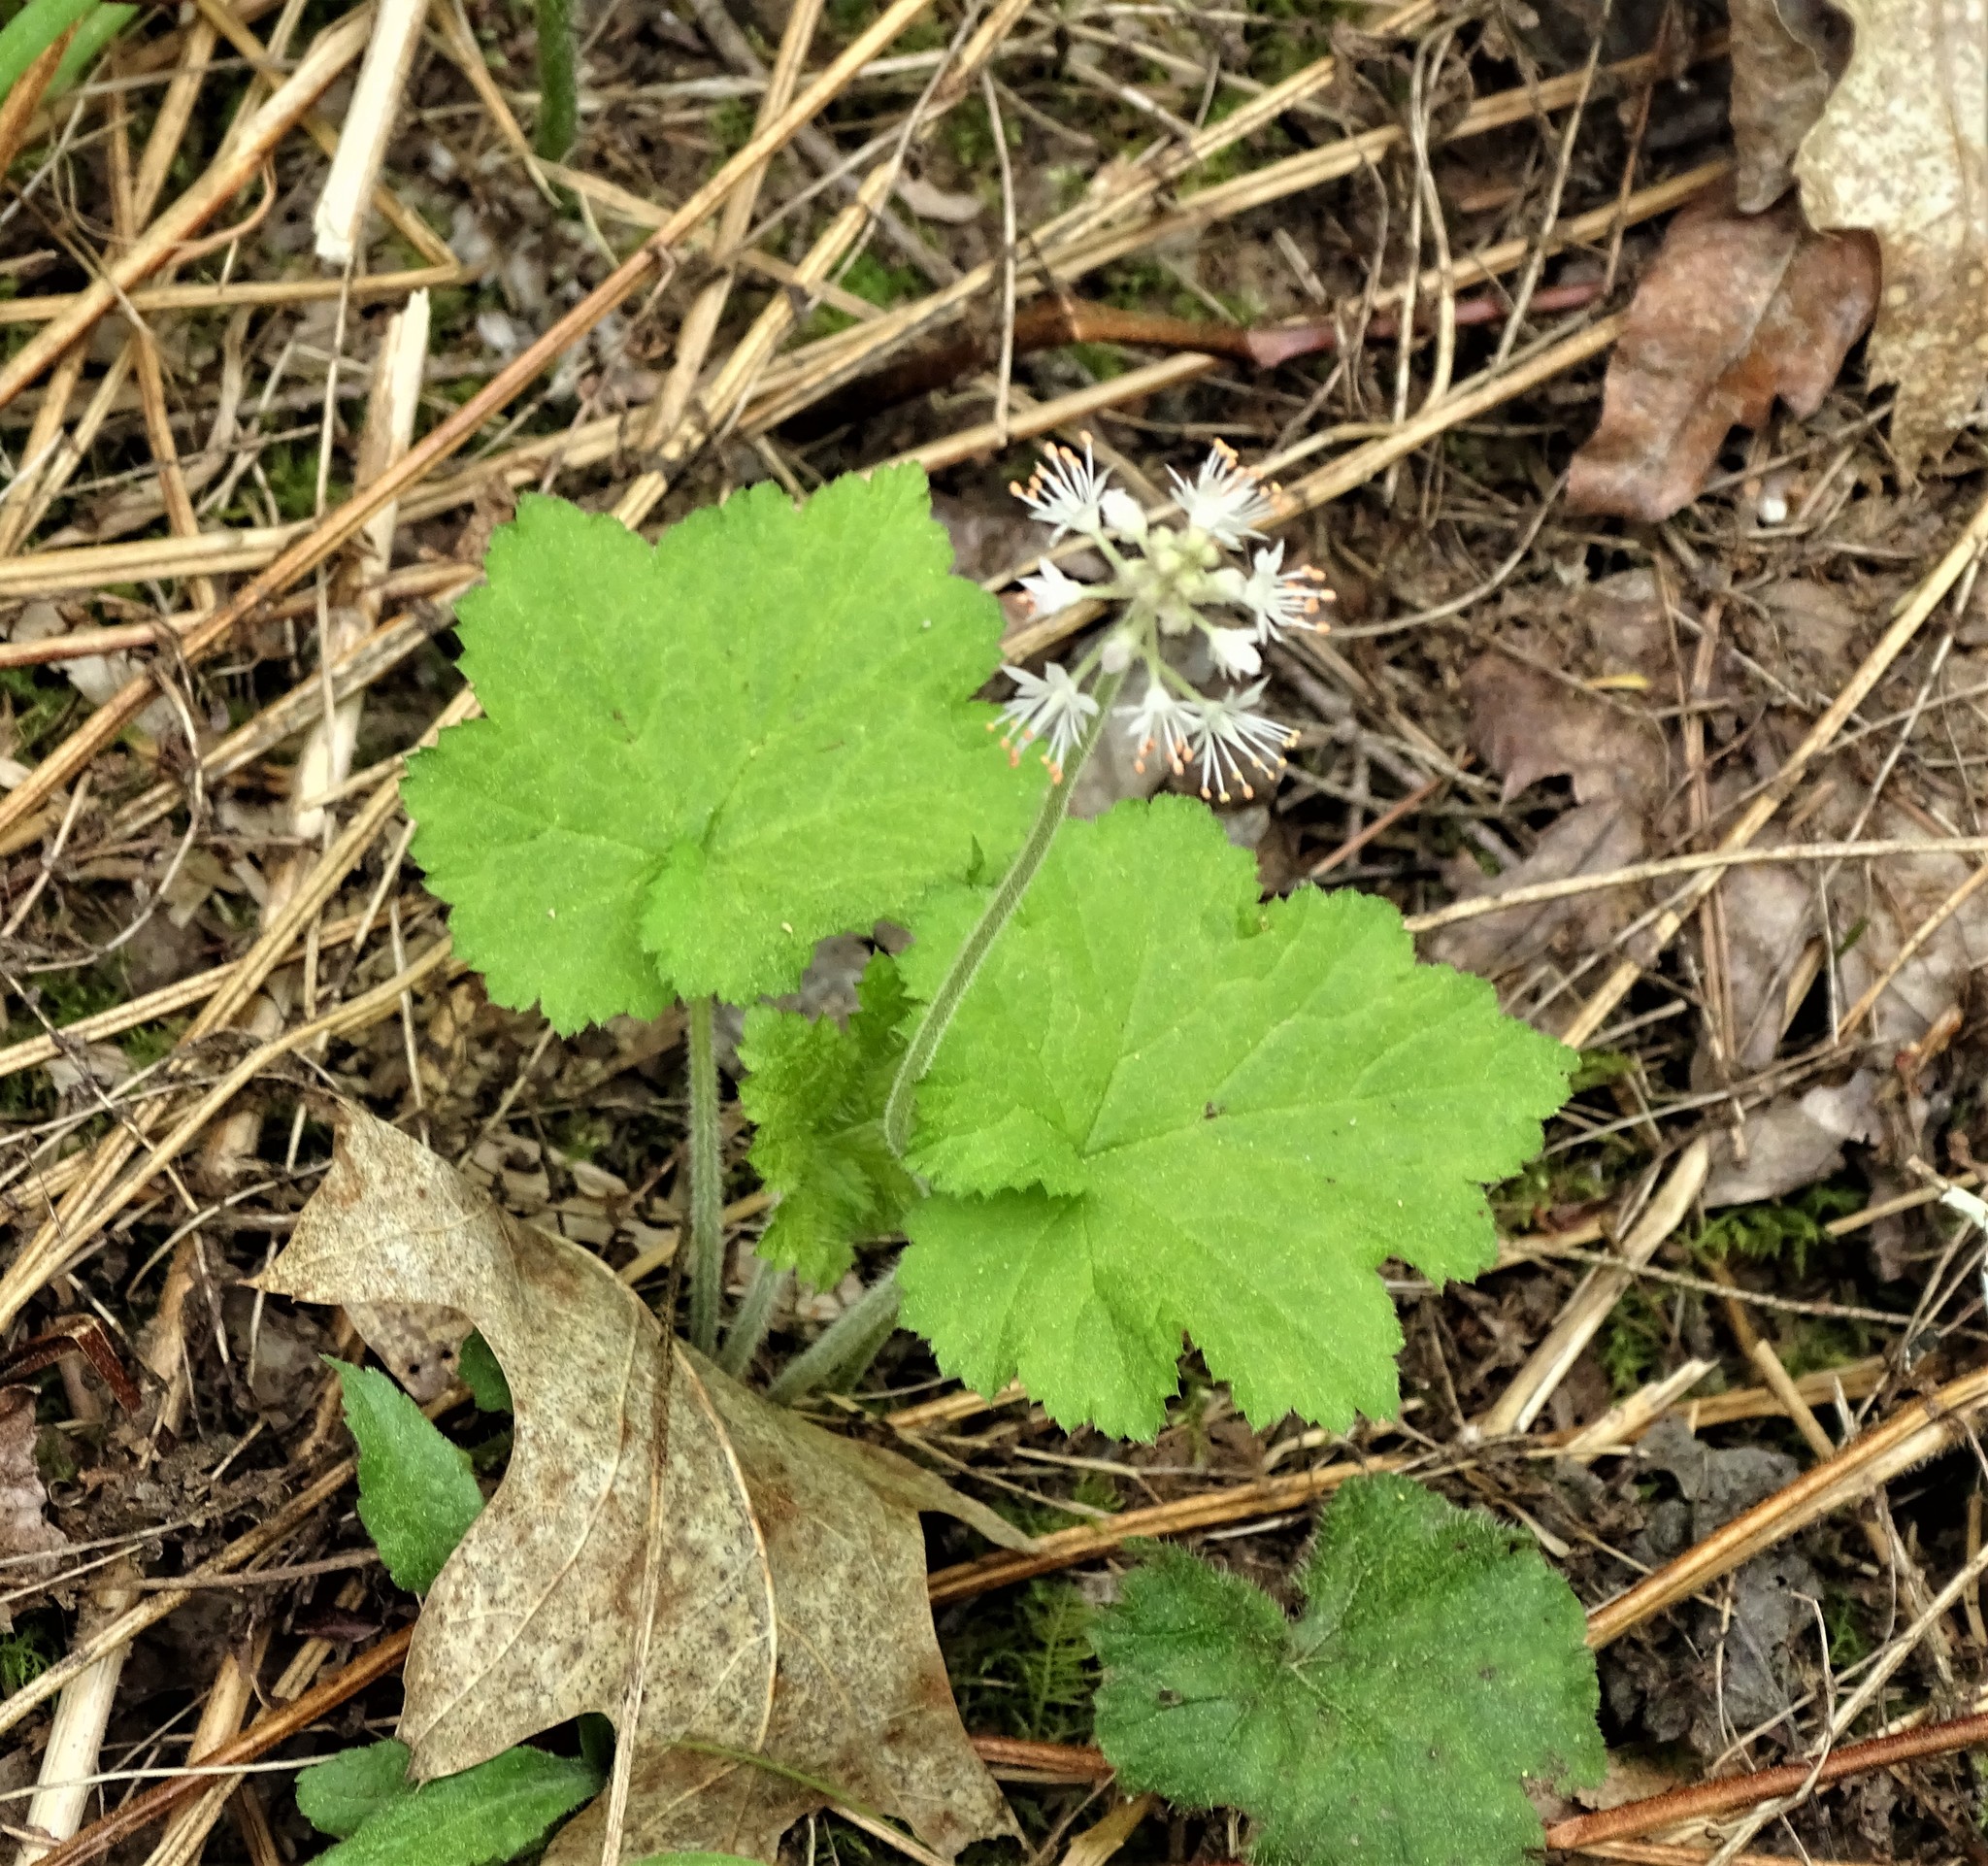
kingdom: Plantae
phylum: Tracheophyta
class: Magnoliopsida
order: Saxifragales
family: Saxifragaceae
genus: Tiarella
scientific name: Tiarella stolonifera
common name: Stoloniferous foamflower
